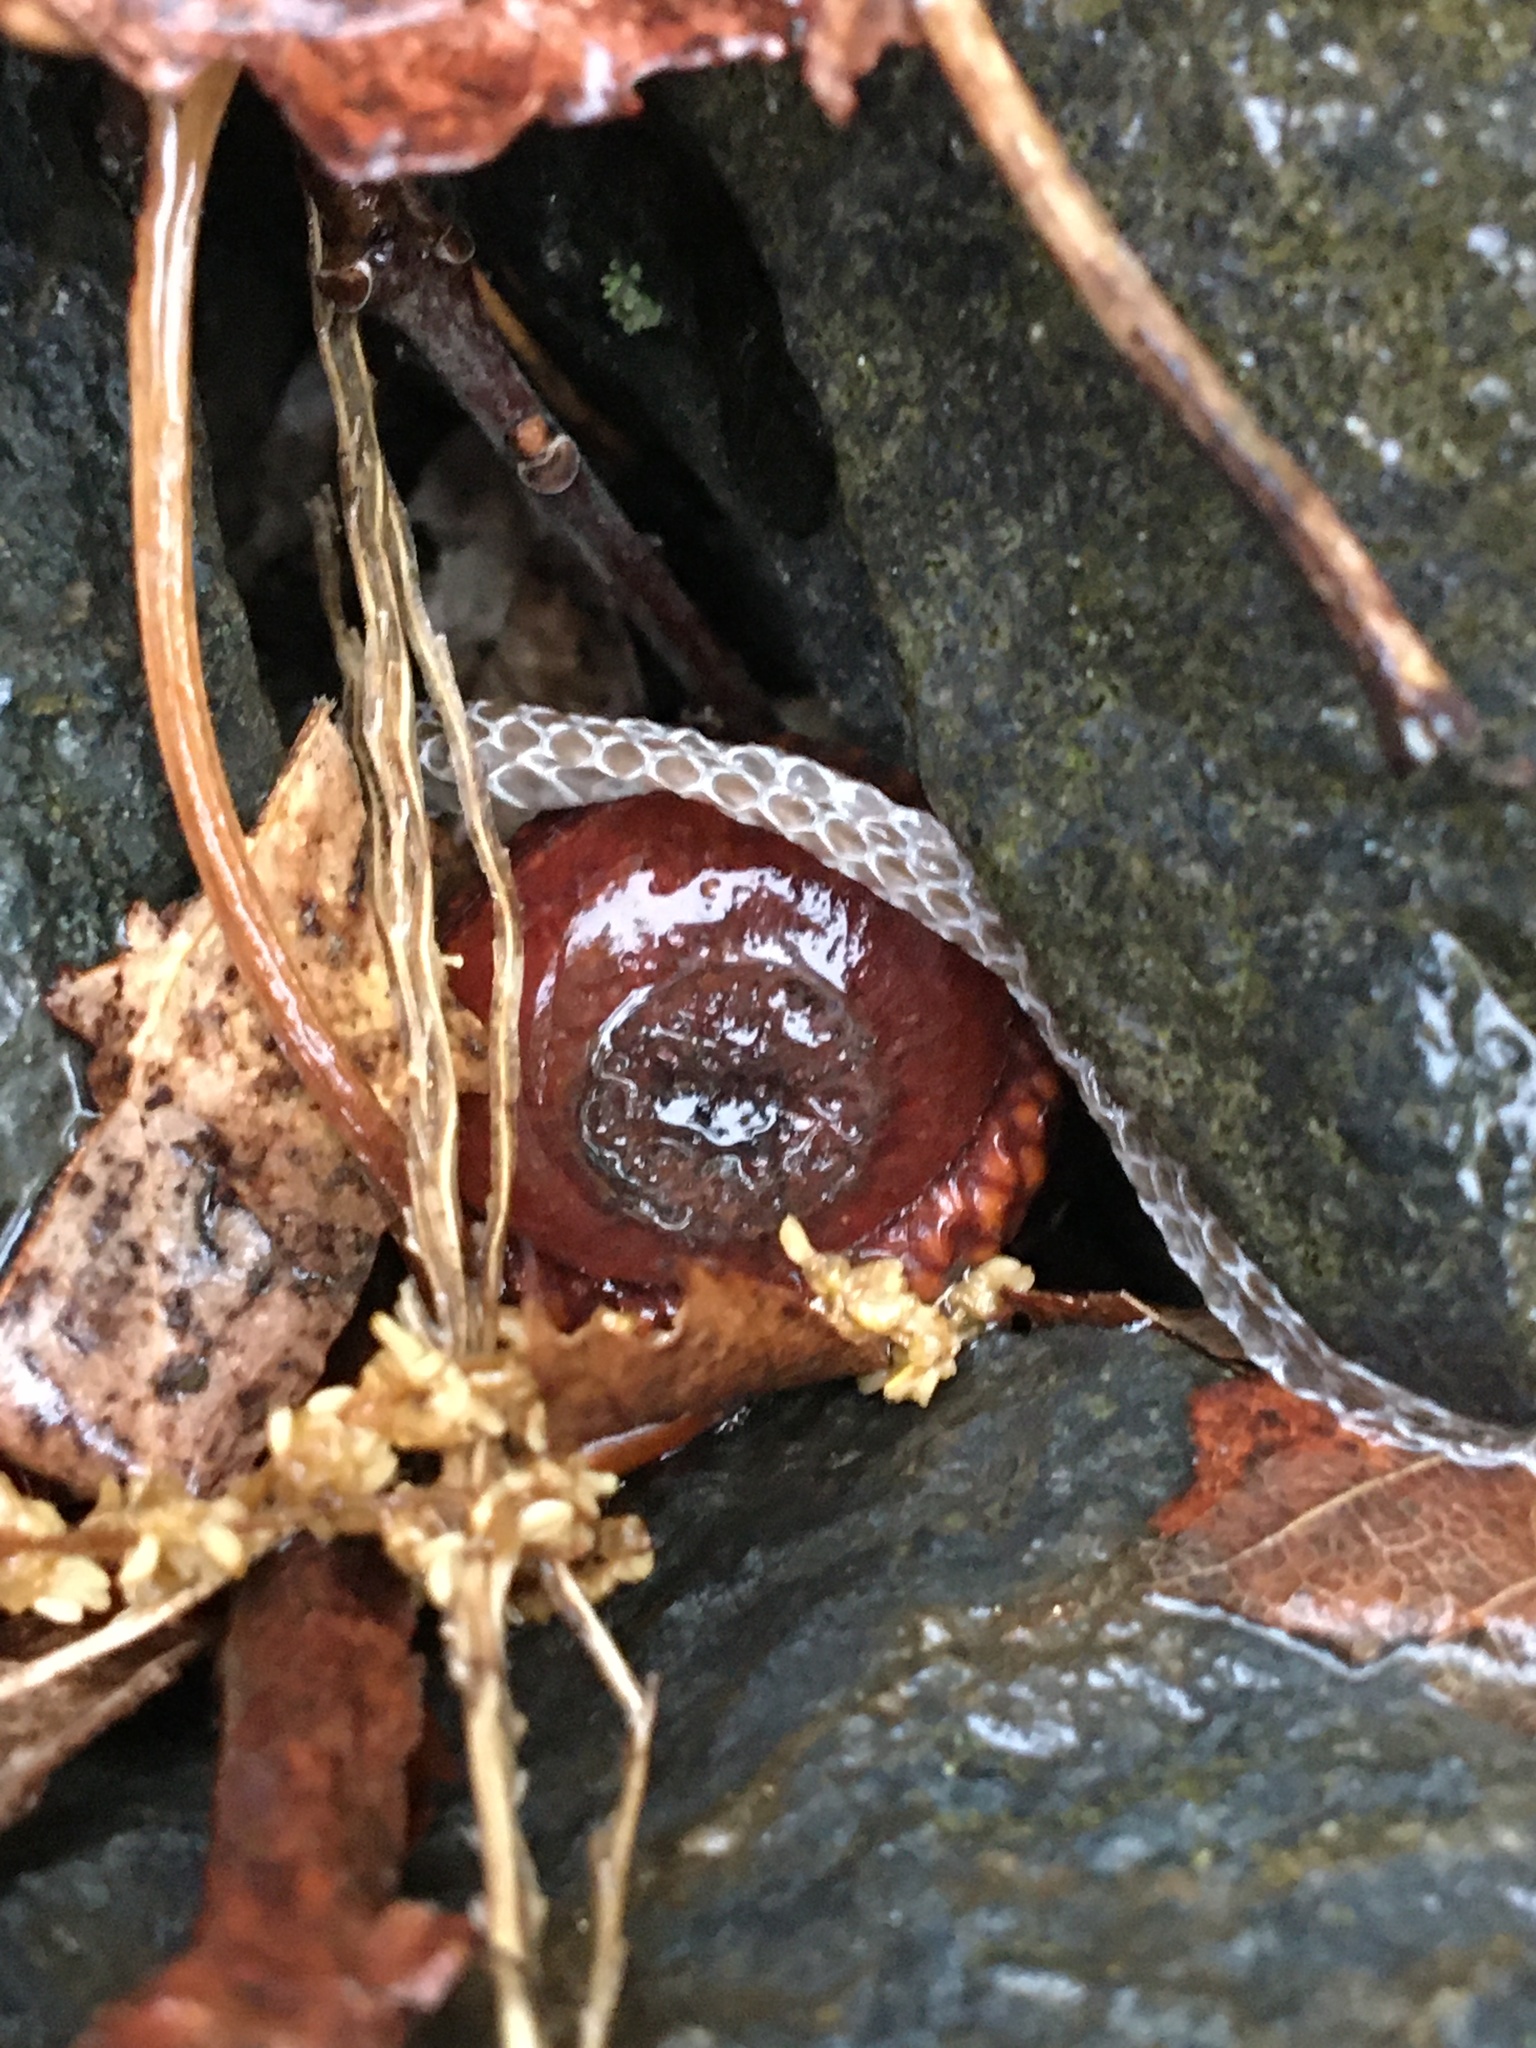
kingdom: Animalia
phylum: Chordata
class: Squamata
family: Colubridae
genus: Diadophis
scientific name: Diadophis punctatus
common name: Ringneck snake
